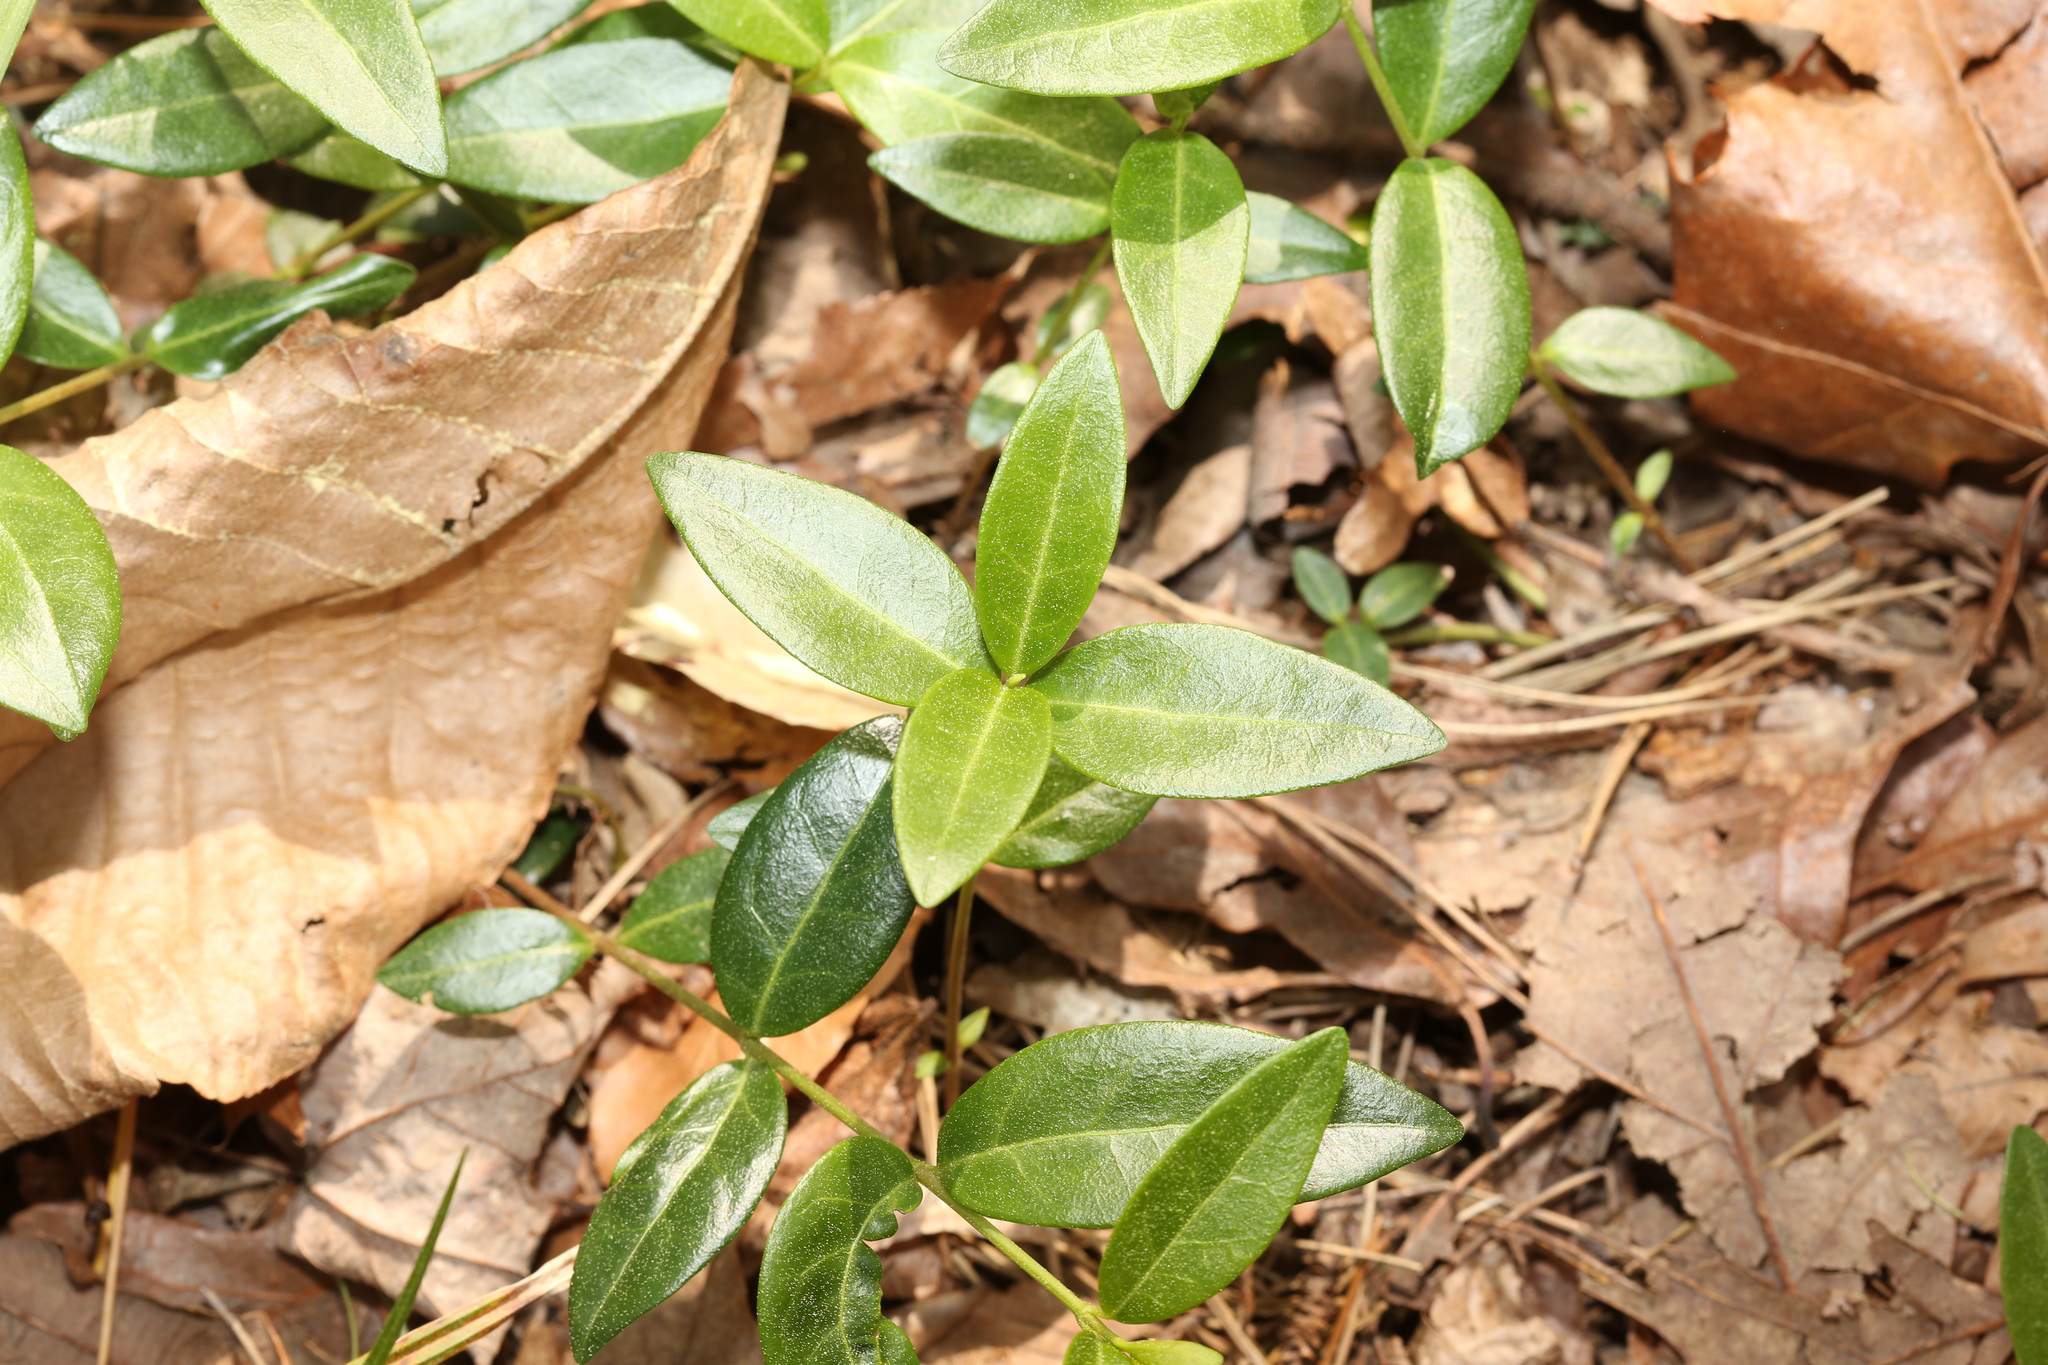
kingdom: Plantae
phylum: Tracheophyta
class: Magnoliopsida
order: Gentianales
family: Apocynaceae
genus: Vinca
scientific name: Vinca minor
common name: Lesser periwinkle
